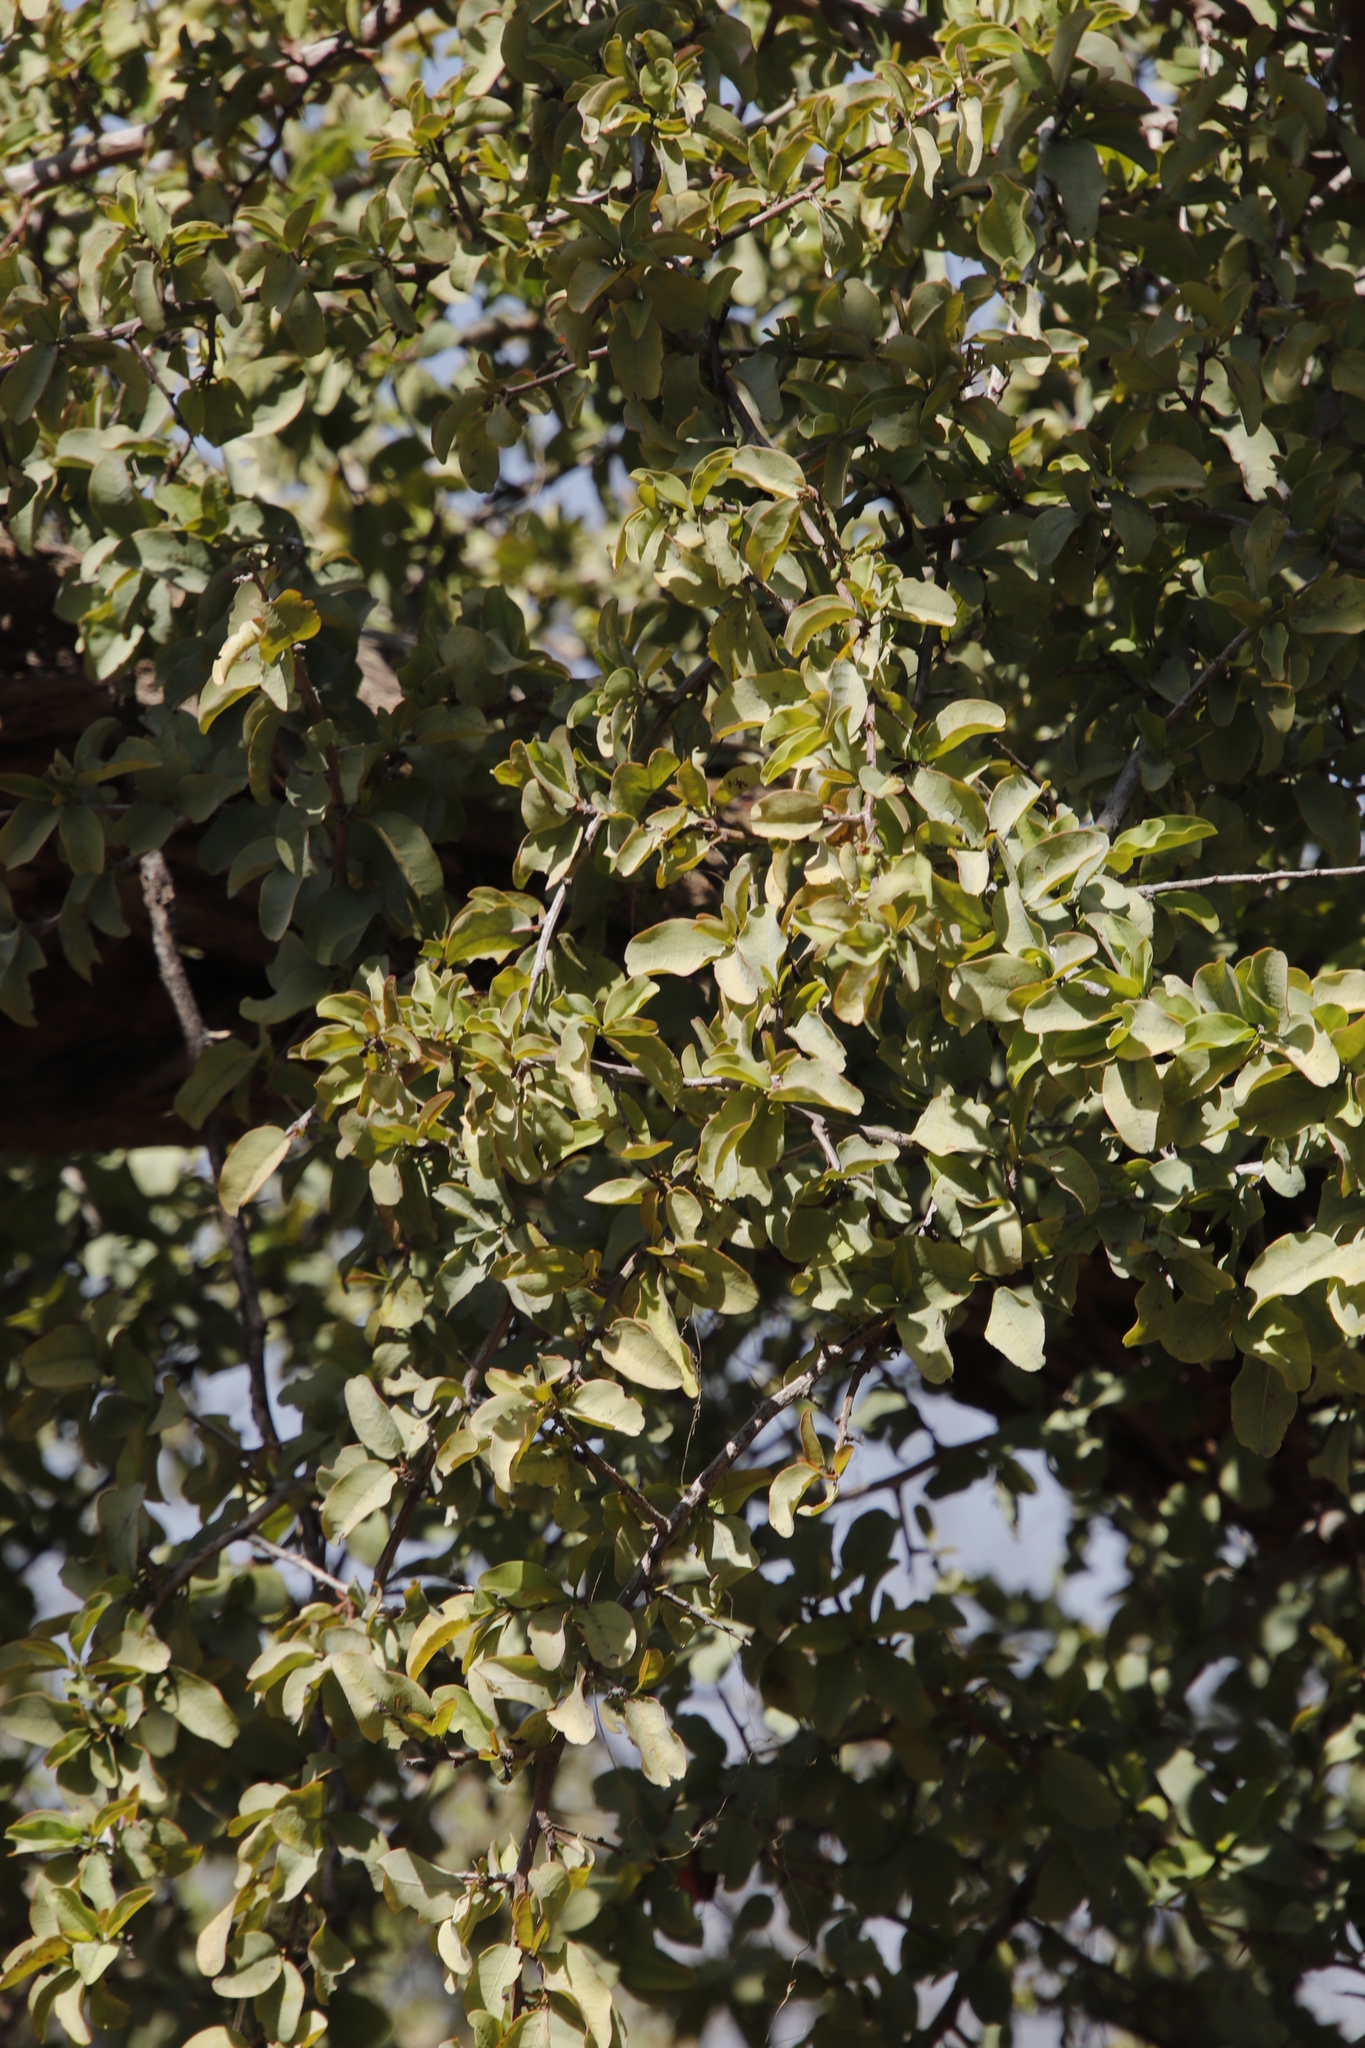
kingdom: Plantae
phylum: Tracheophyta
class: Magnoliopsida
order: Myrtales
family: Combretaceae
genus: Terminalia
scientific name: Terminalia prunioides
